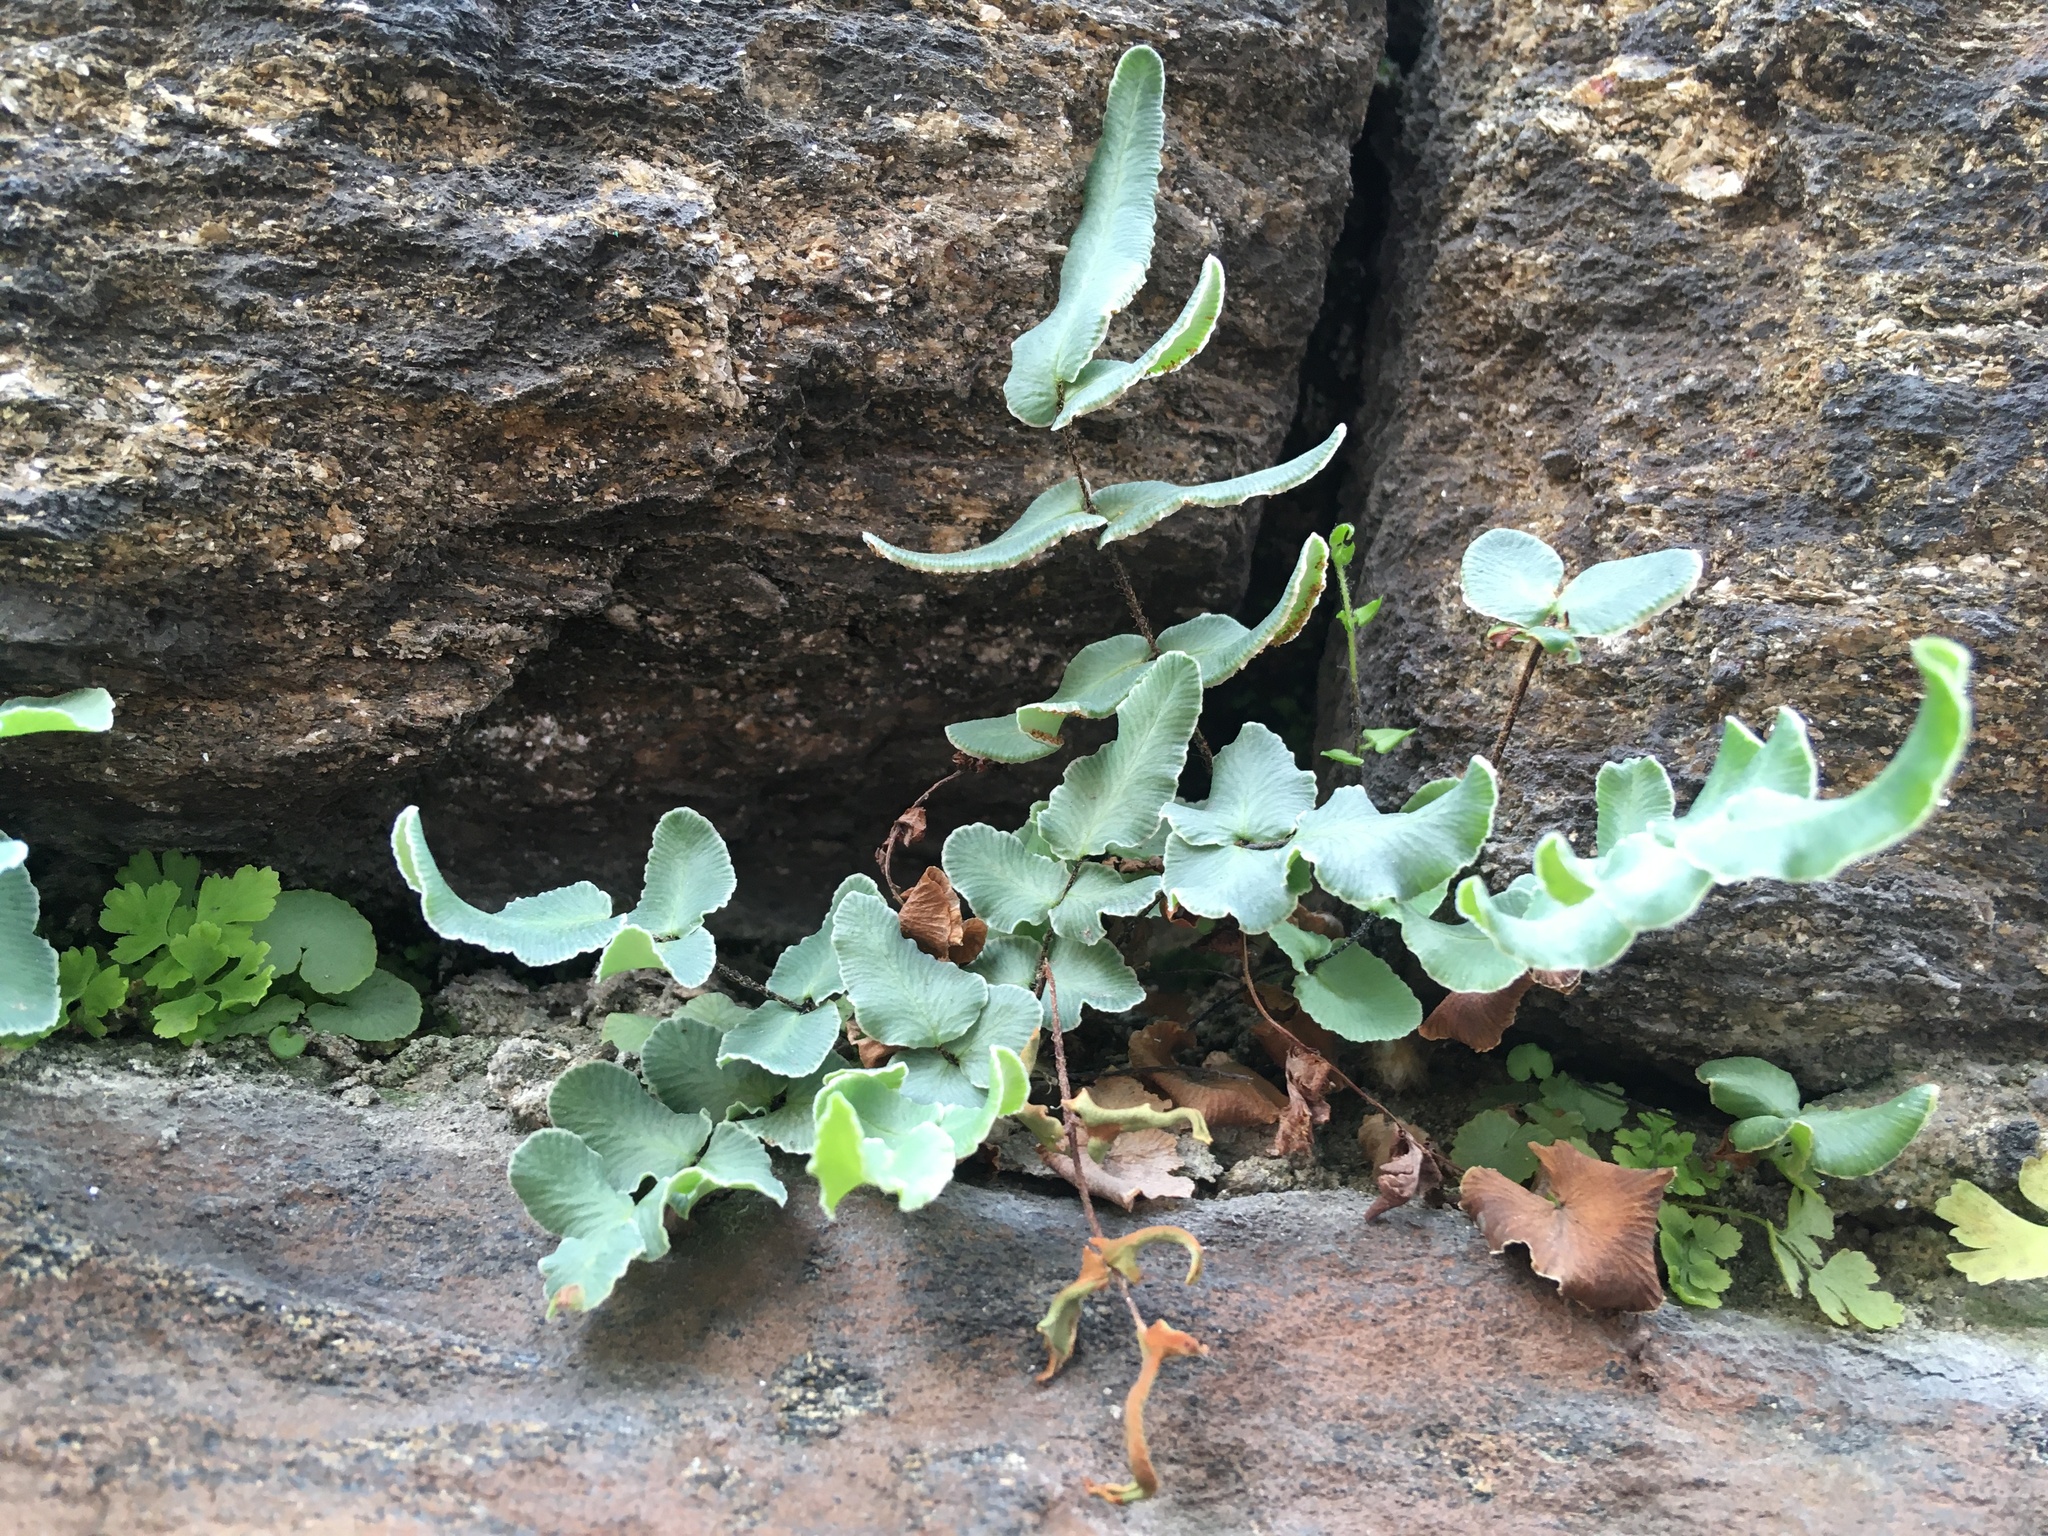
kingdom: Plantae
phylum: Tracheophyta
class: Polypodiopsida
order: Polypodiales
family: Pteridaceae
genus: Pellaea
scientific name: Pellaea atropurpurea
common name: Hairy cliffbrake
